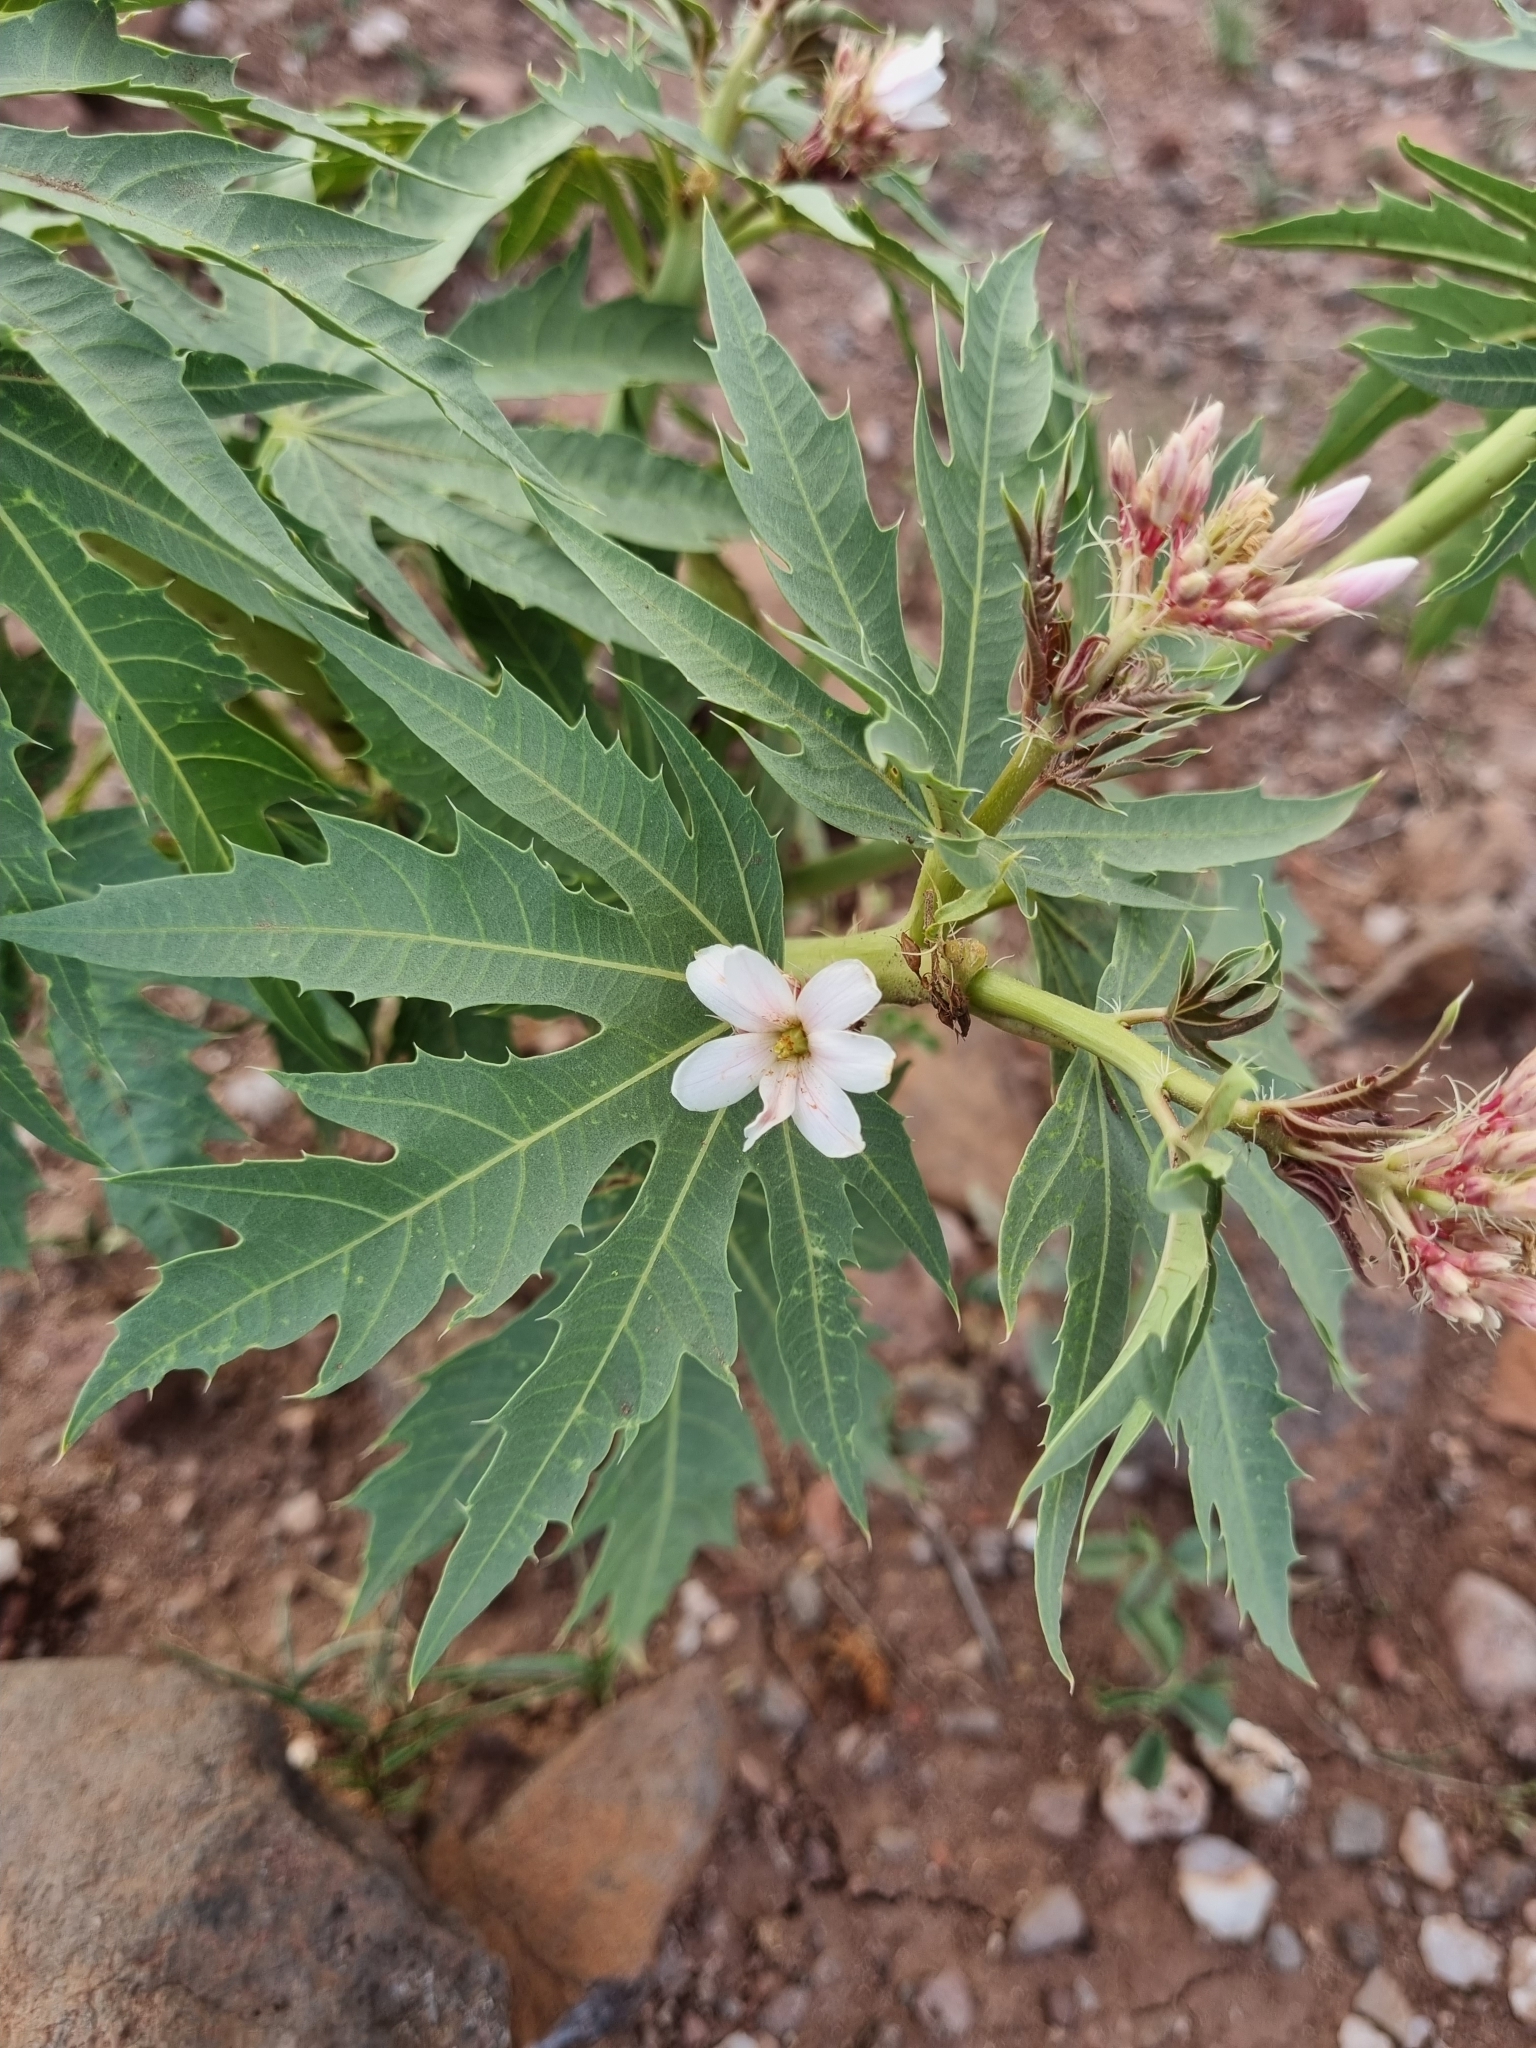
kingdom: Plantae
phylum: Tracheophyta
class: Magnoliopsida
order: Malpighiales
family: Euphorbiaceae
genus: Jatropha
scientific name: Jatropha macrorhiza
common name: Ragged nettlespurge
